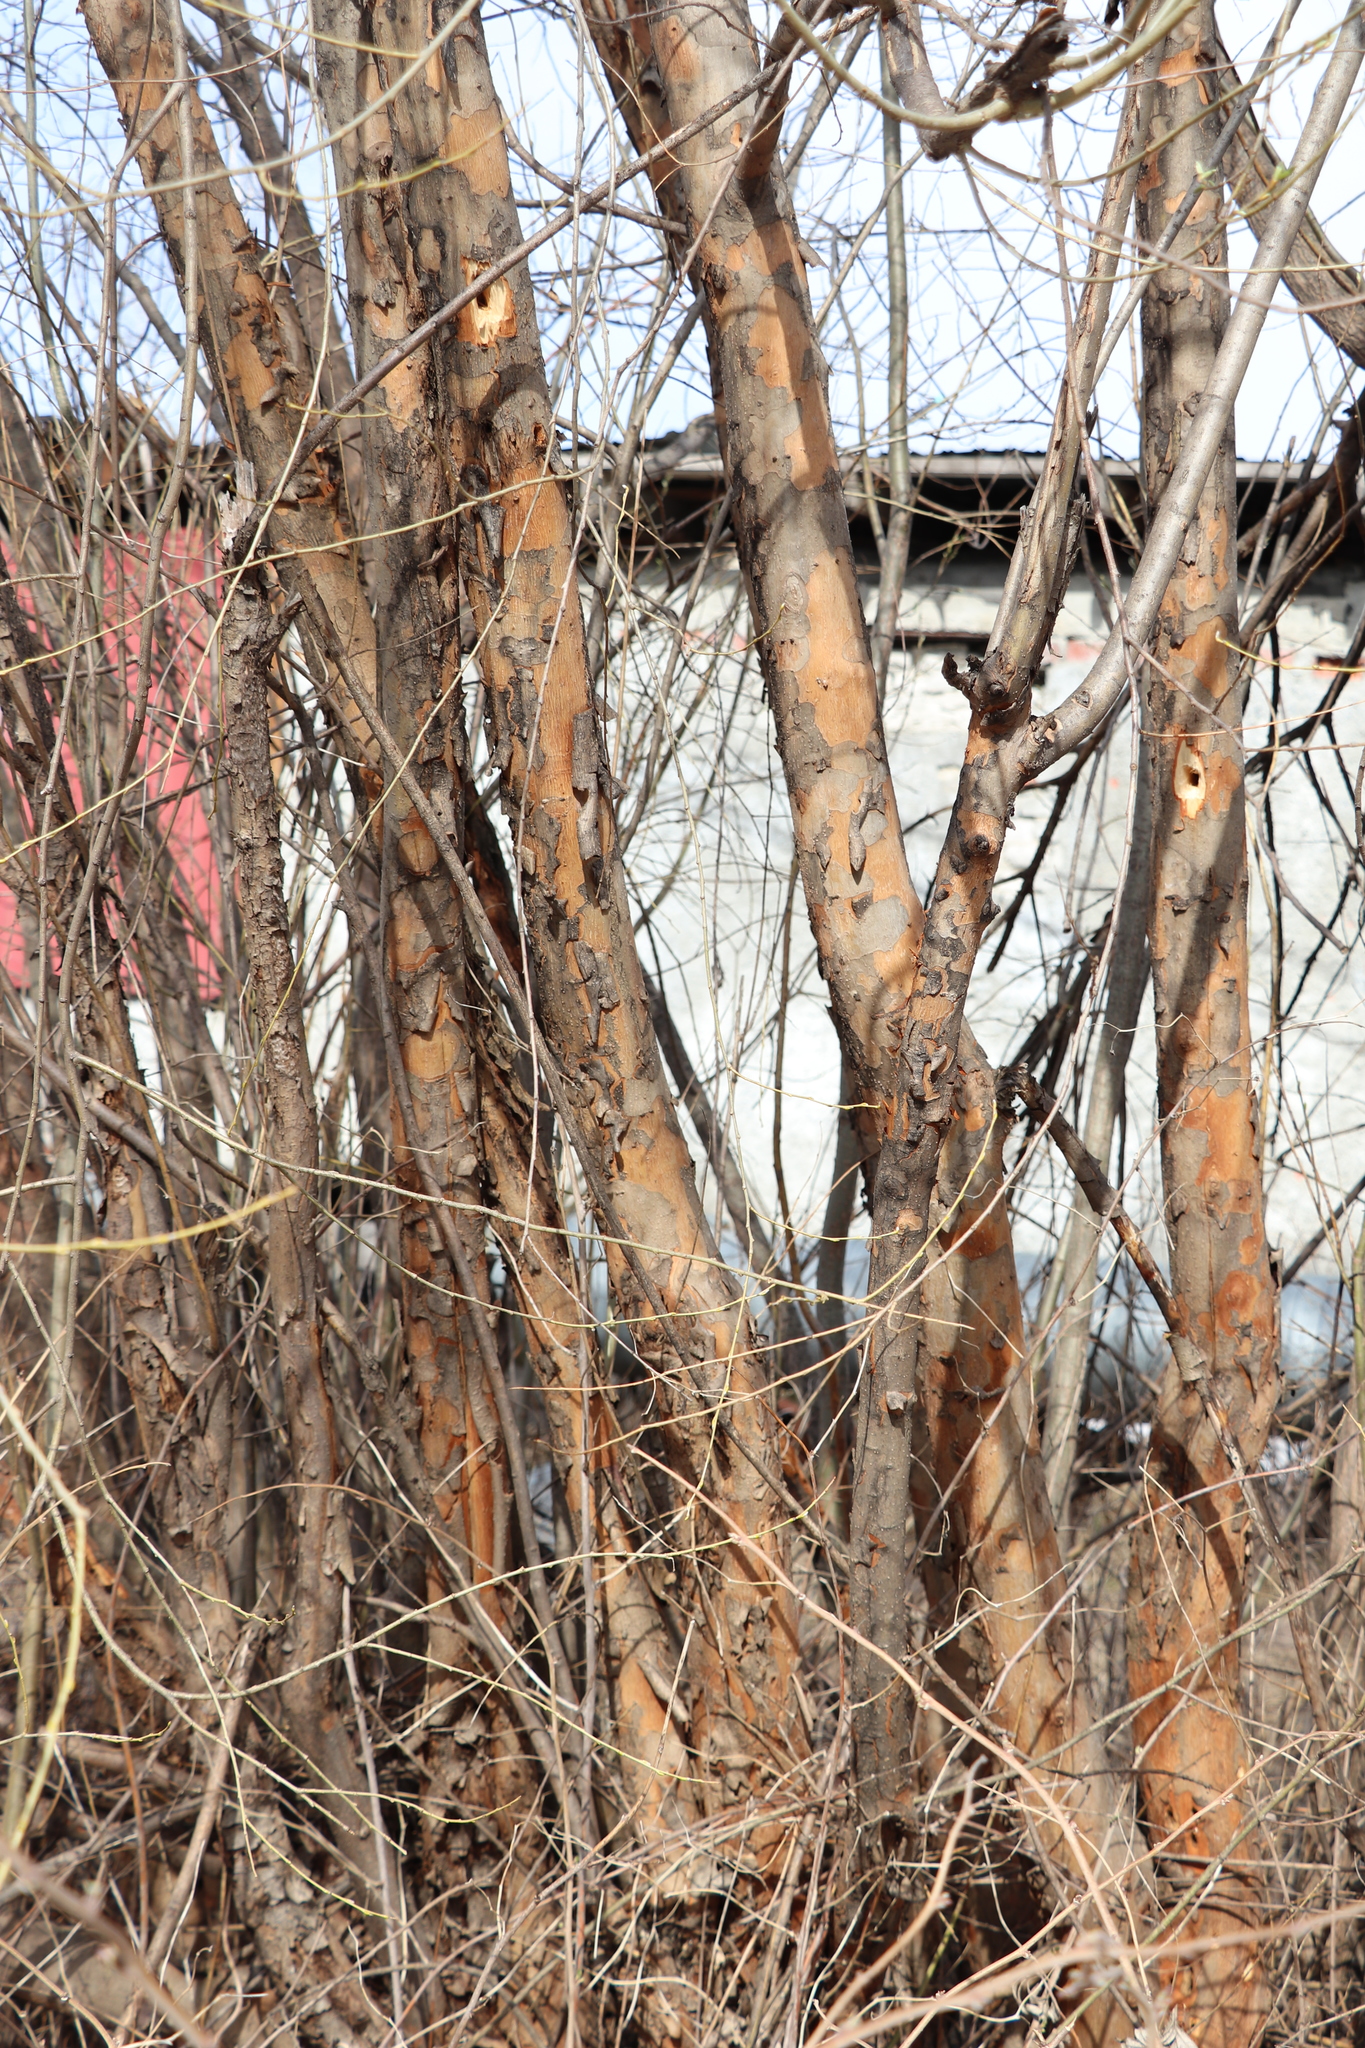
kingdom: Plantae
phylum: Tracheophyta
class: Magnoliopsida
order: Malpighiales
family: Salicaceae
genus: Salix
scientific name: Salix triandra
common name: Almond willow
